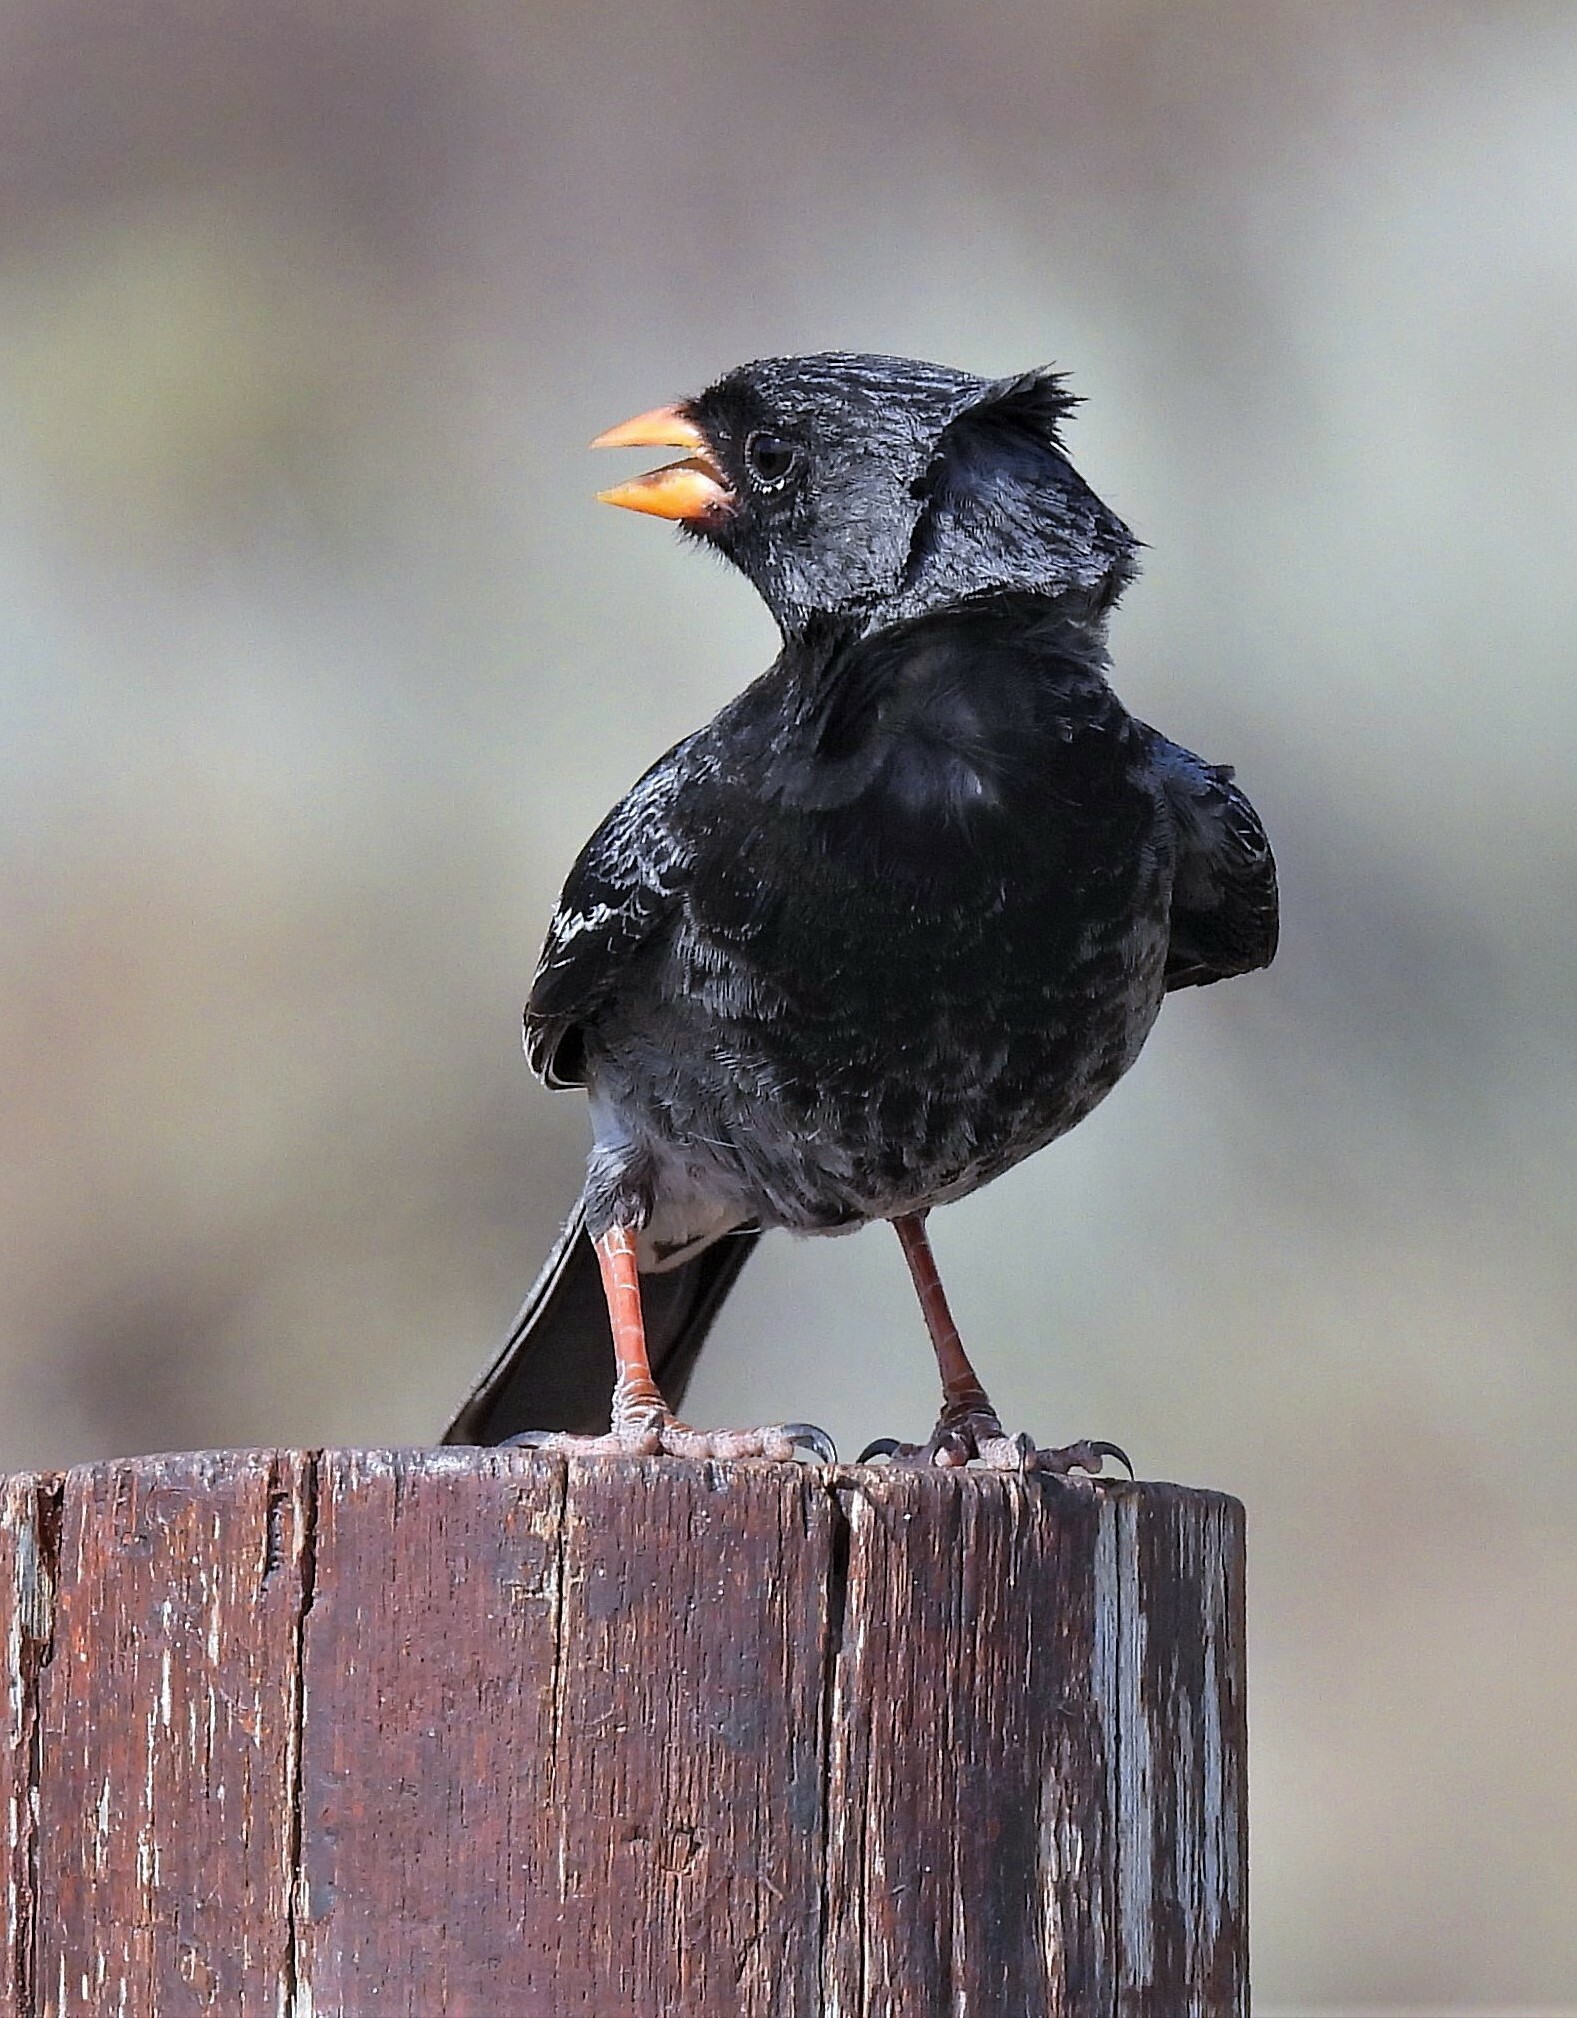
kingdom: Animalia
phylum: Chordata
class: Aves
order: Passeriformes
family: Thraupidae
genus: Rhopospina
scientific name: Rhopospina fruticeti
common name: Mourning sierra finch
